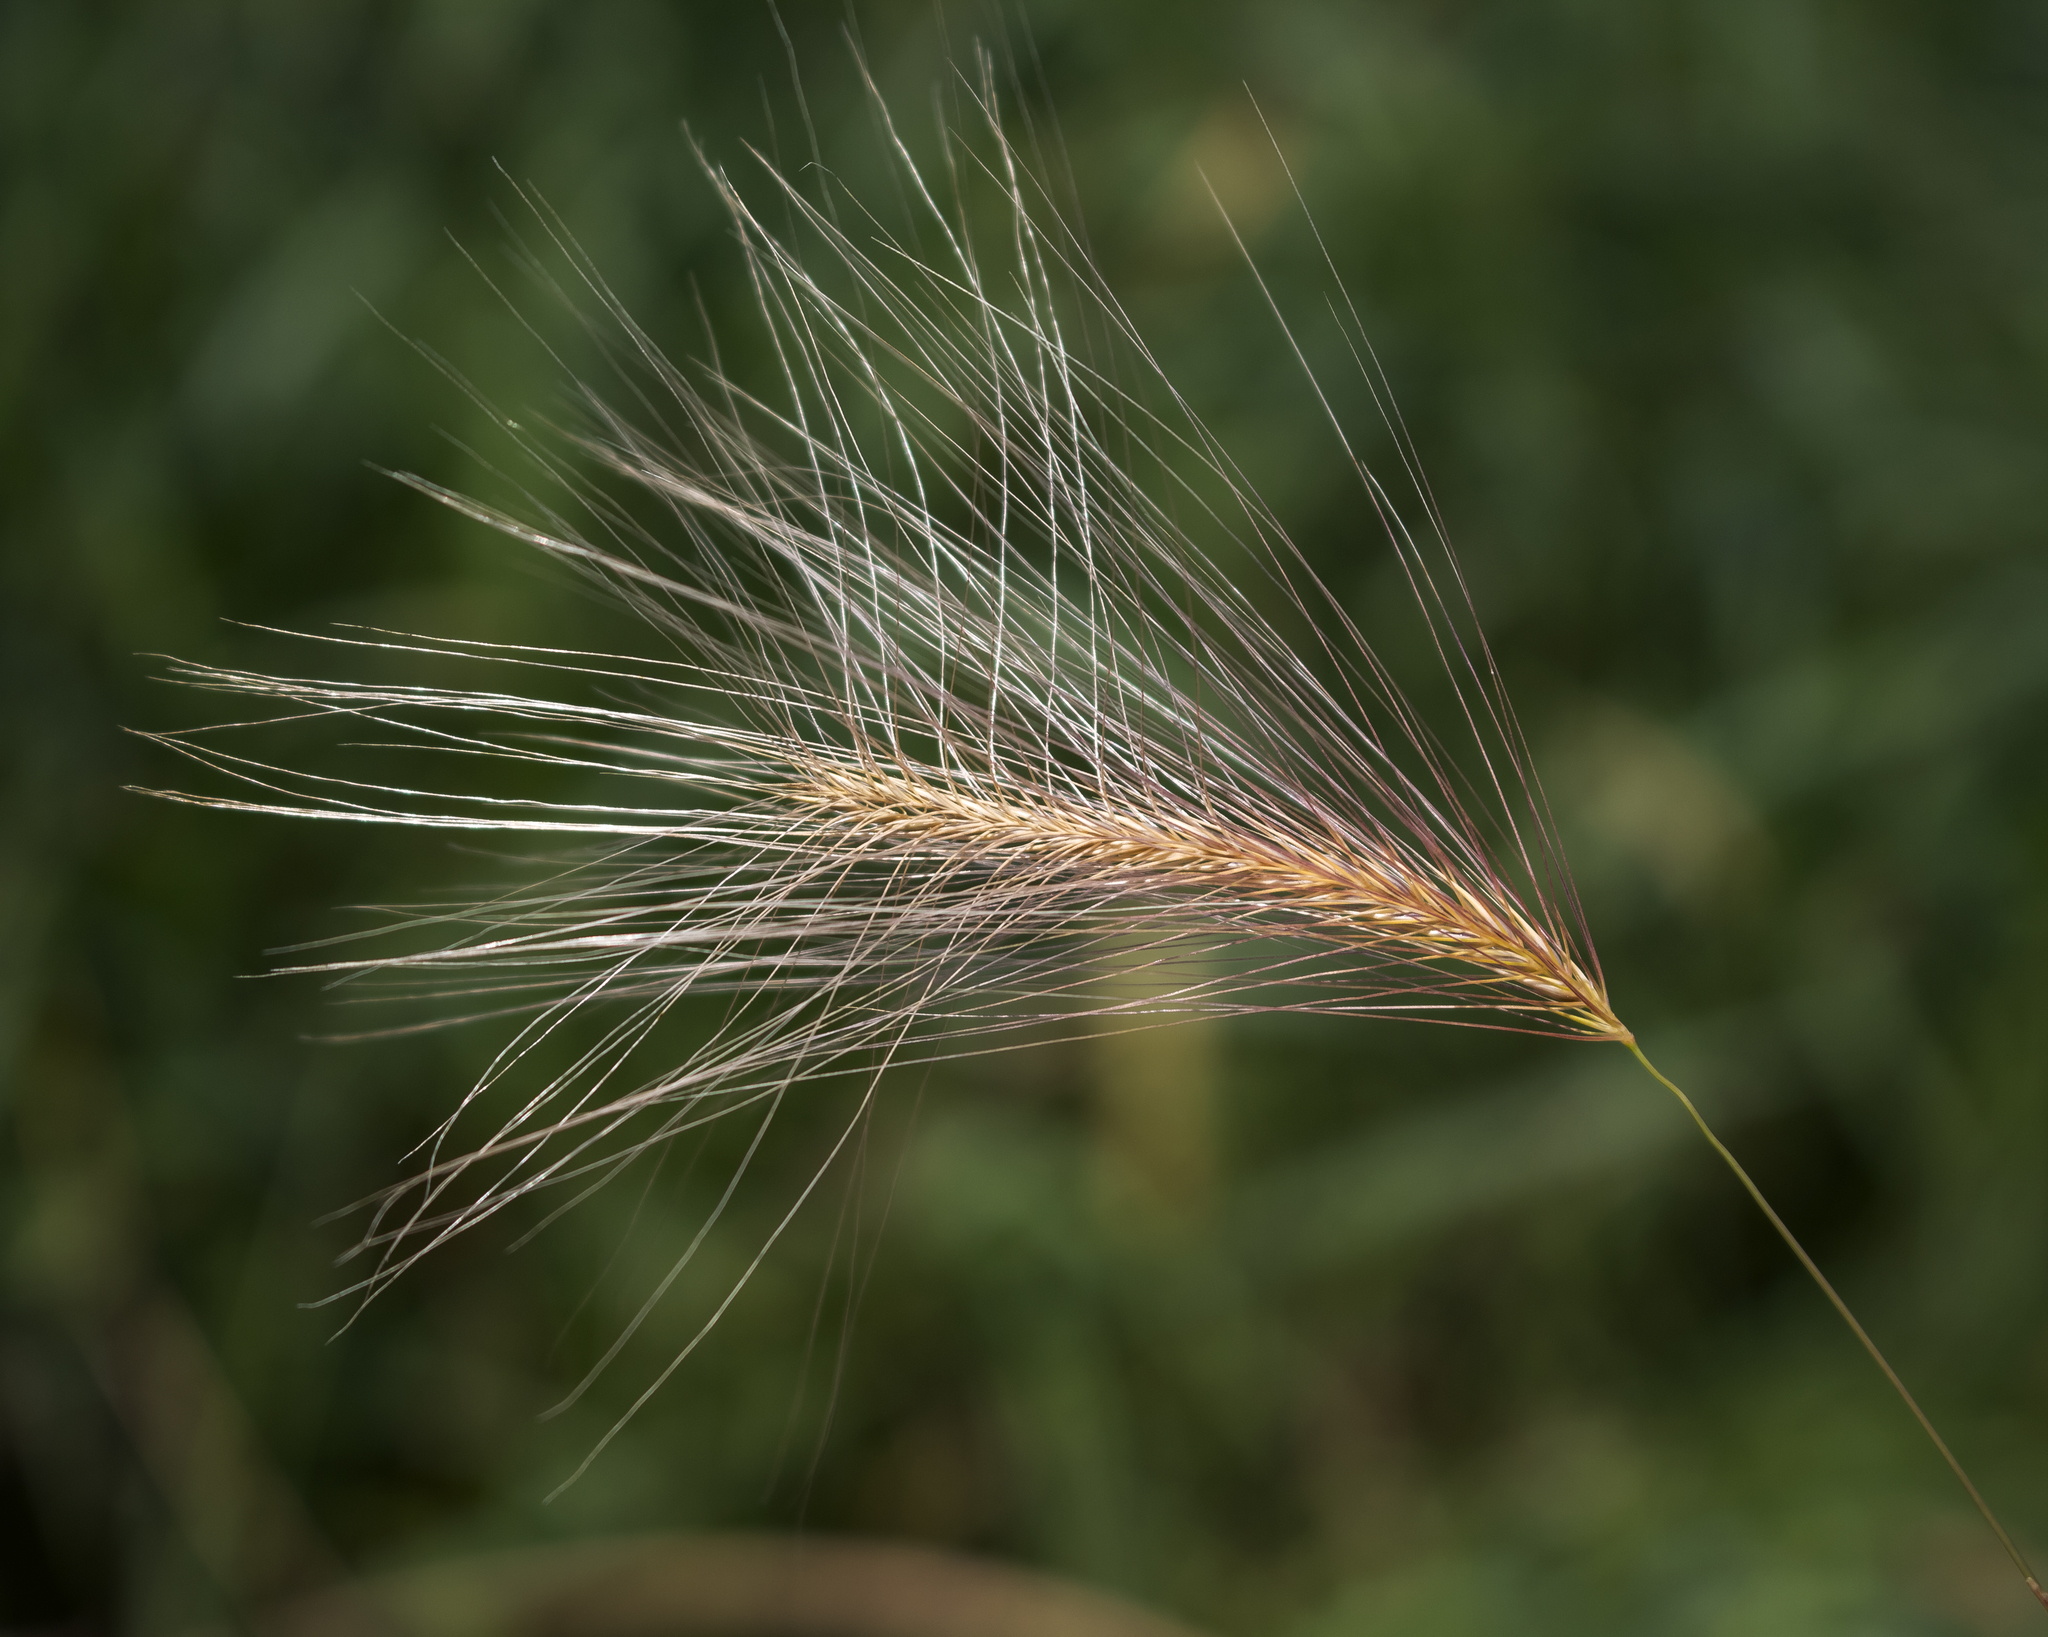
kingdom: Plantae
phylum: Tracheophyta
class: Liliopsida
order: Poales
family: Poaceae
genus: Hordeum
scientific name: Hordeum jubatum
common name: Foxtail barley
